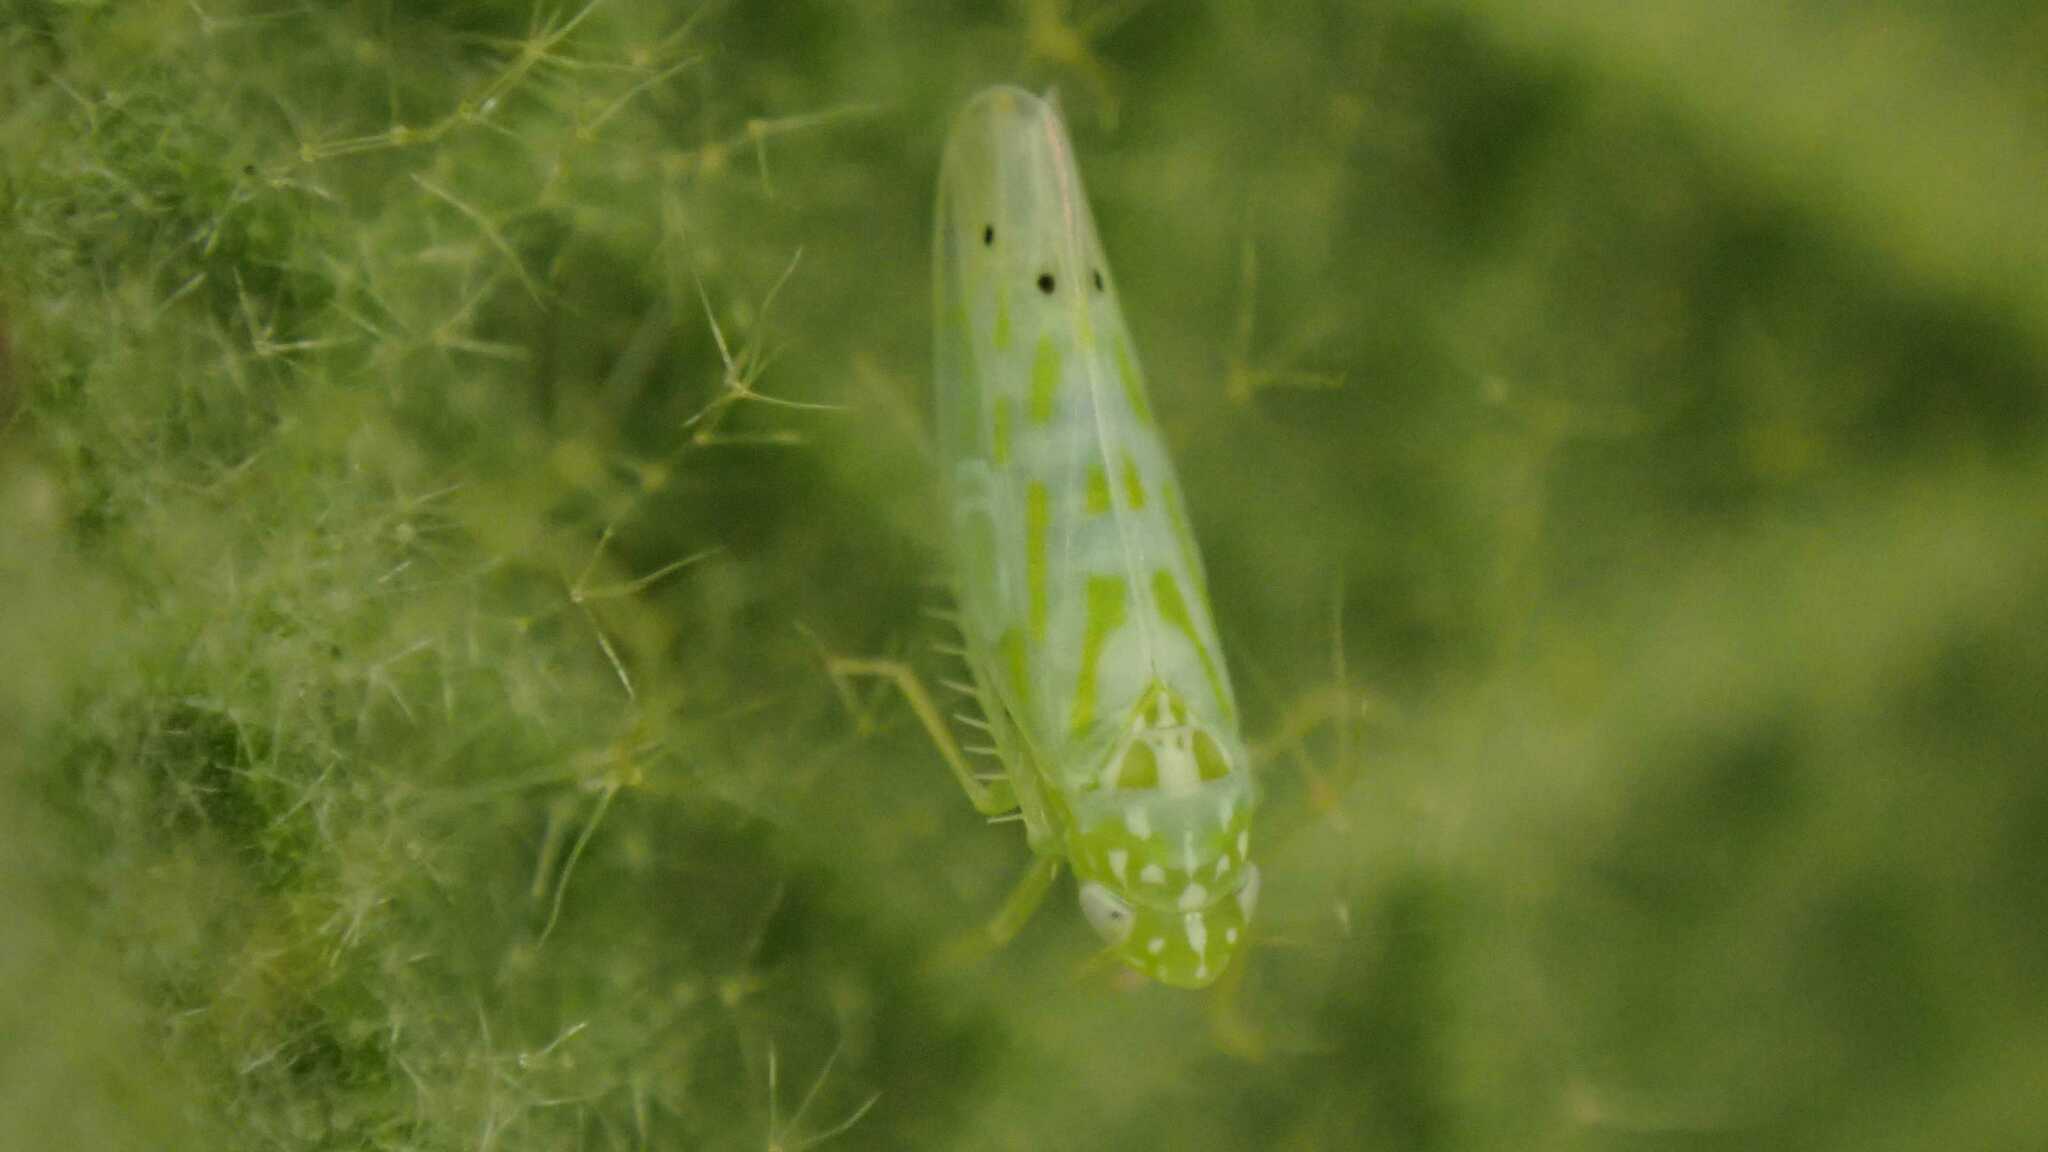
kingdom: Animalia
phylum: Arthropoda
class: Insecta
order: Hemiptera
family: Cicadellidae
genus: Micantulina
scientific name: Micantulina stigmatipennis
